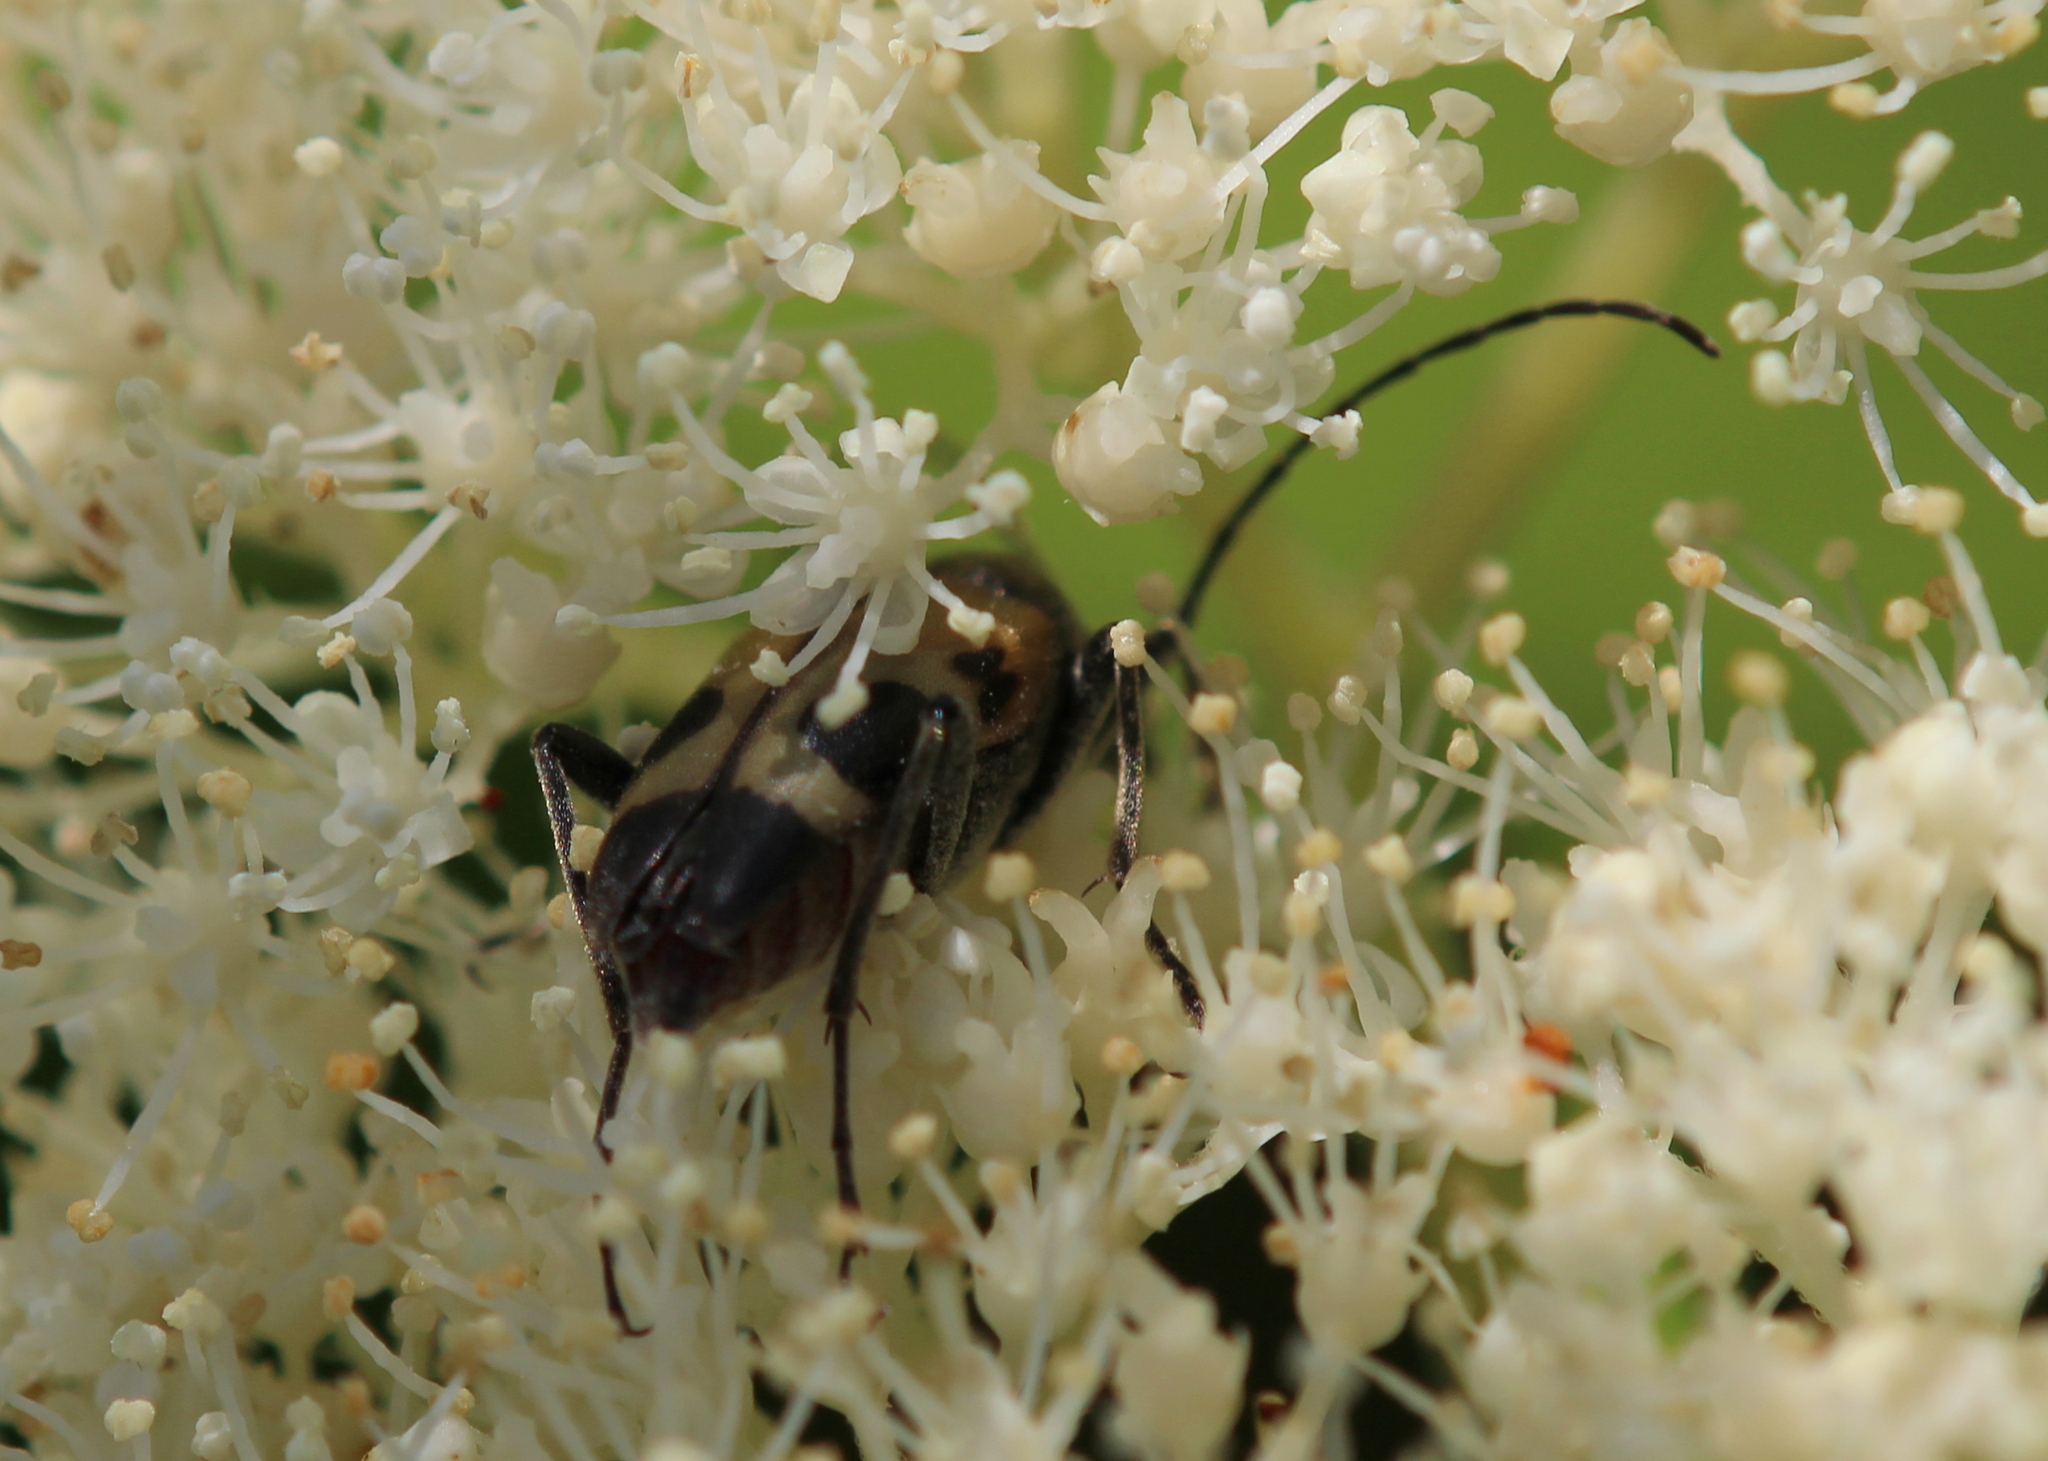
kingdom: Animalia
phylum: Arthropoda
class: Insecta
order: Coleoptera
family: Cerambycidae
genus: Judolia
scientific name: Judolia cordifera
